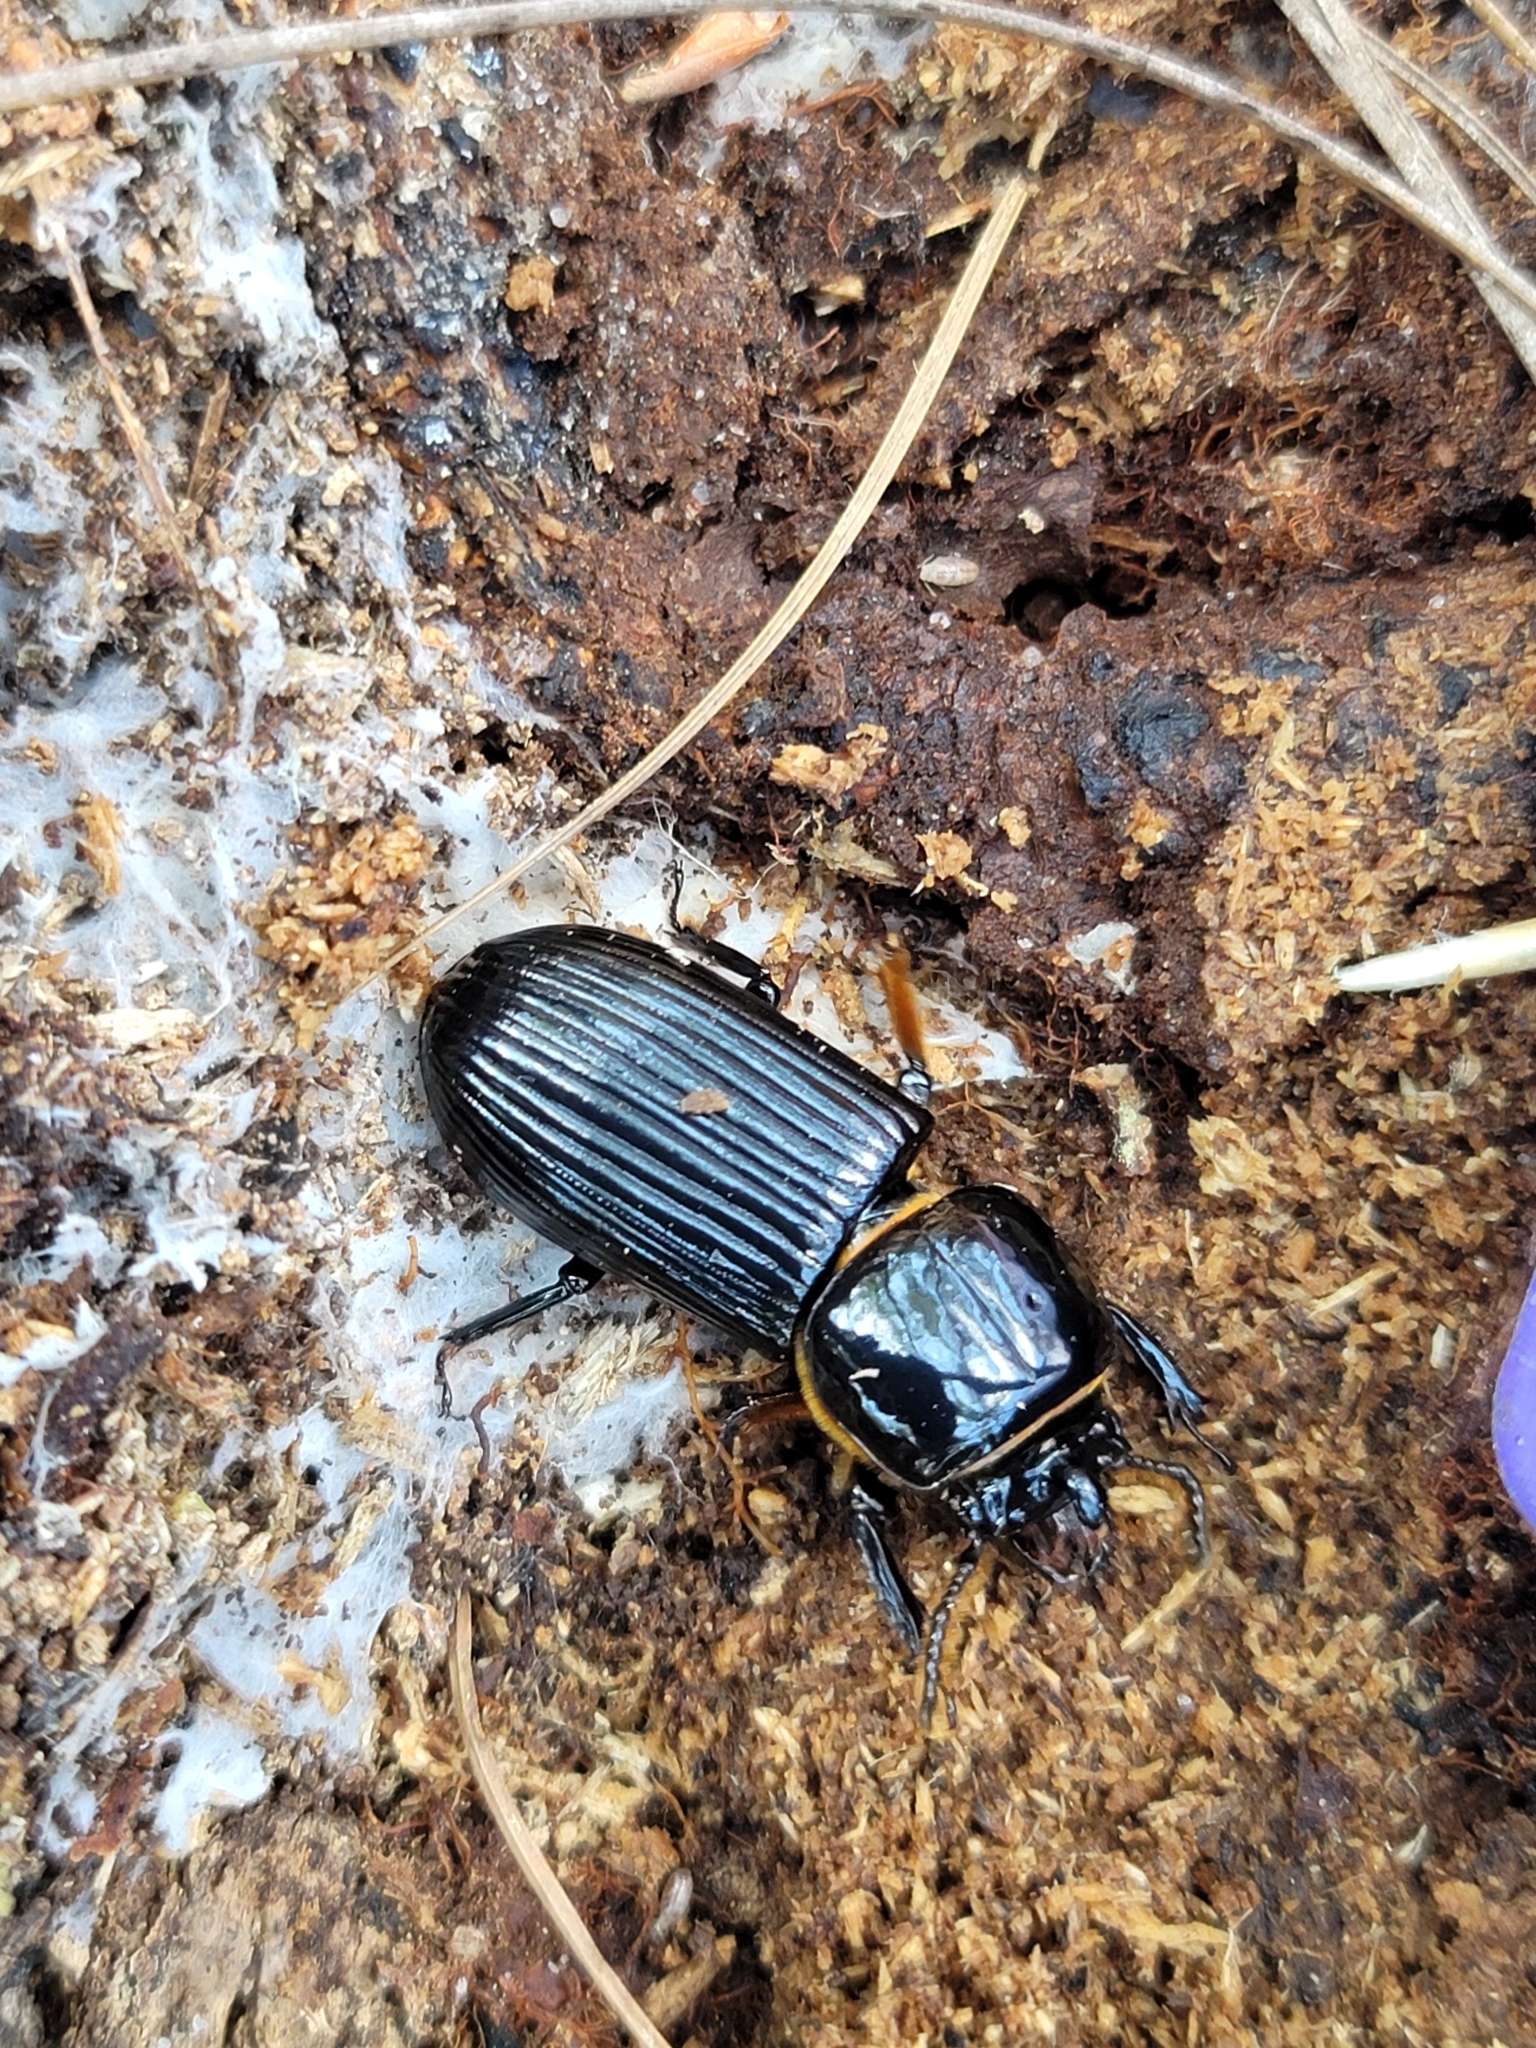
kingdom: Animalia
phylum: Arthropoda
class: Insecta
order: Coleoptera
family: Passalidae
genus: Odontotaenius
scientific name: Odontotaenius disjunctus
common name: Patent leather beetle
